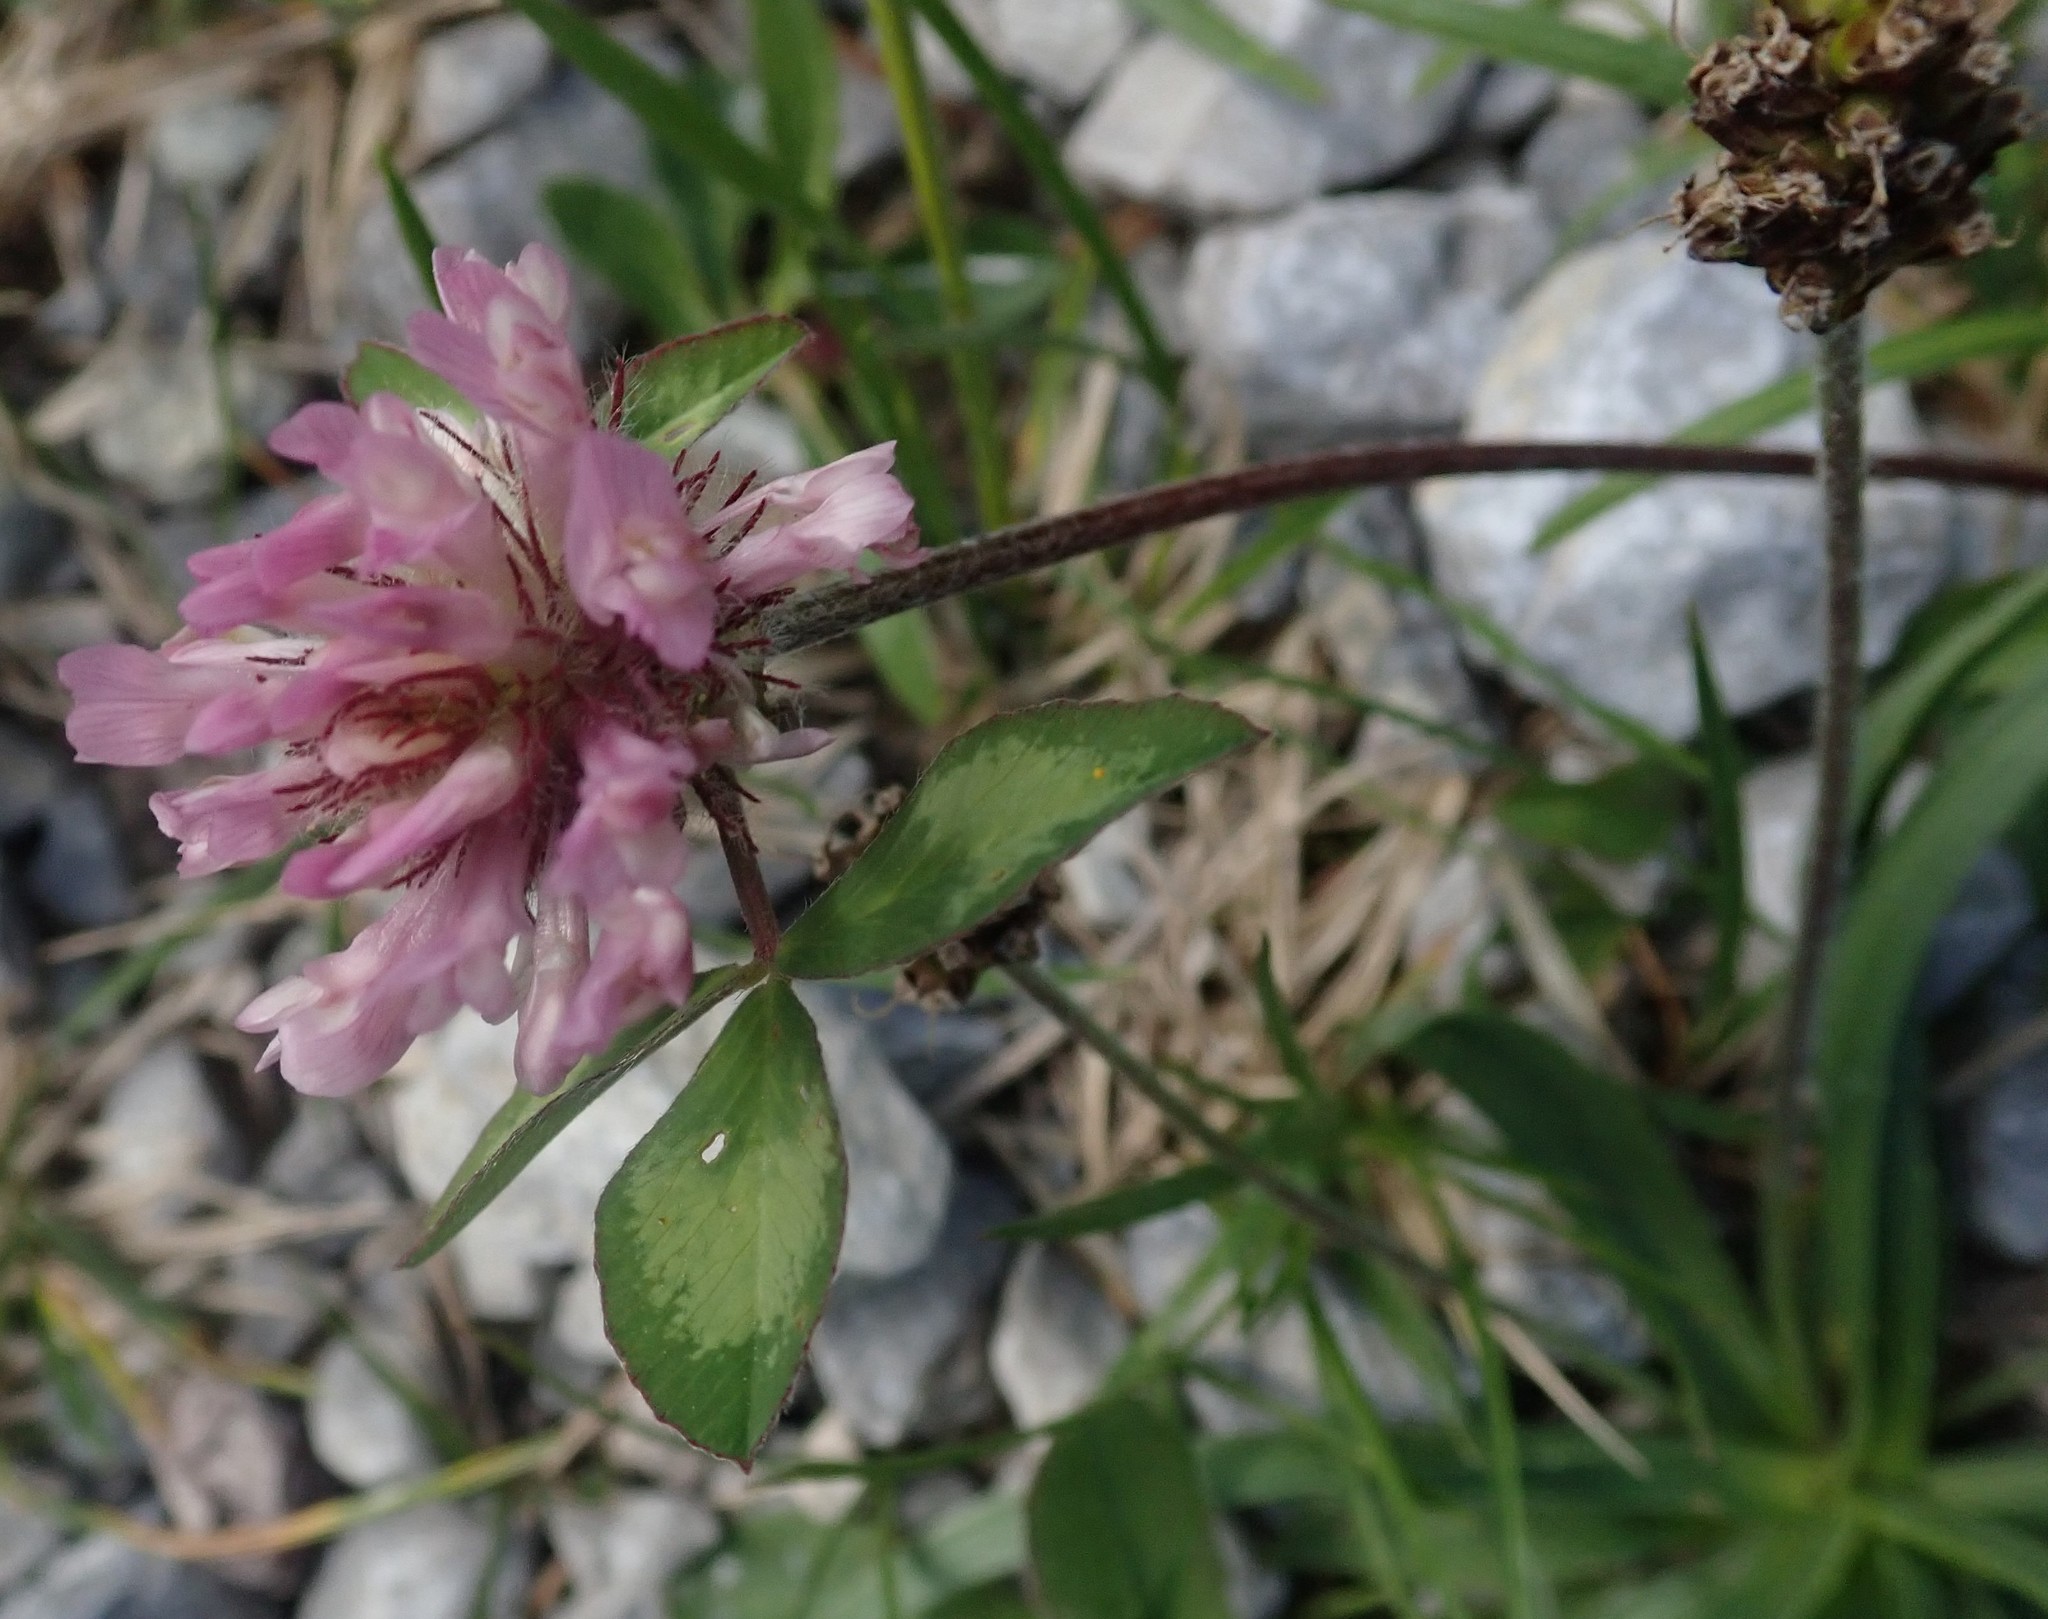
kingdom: Plantae
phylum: Tracheophyta
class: Magnoliopsida
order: Fabales
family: Fabaceae
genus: Trifolium
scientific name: Trifolium pratense
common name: Red clover
